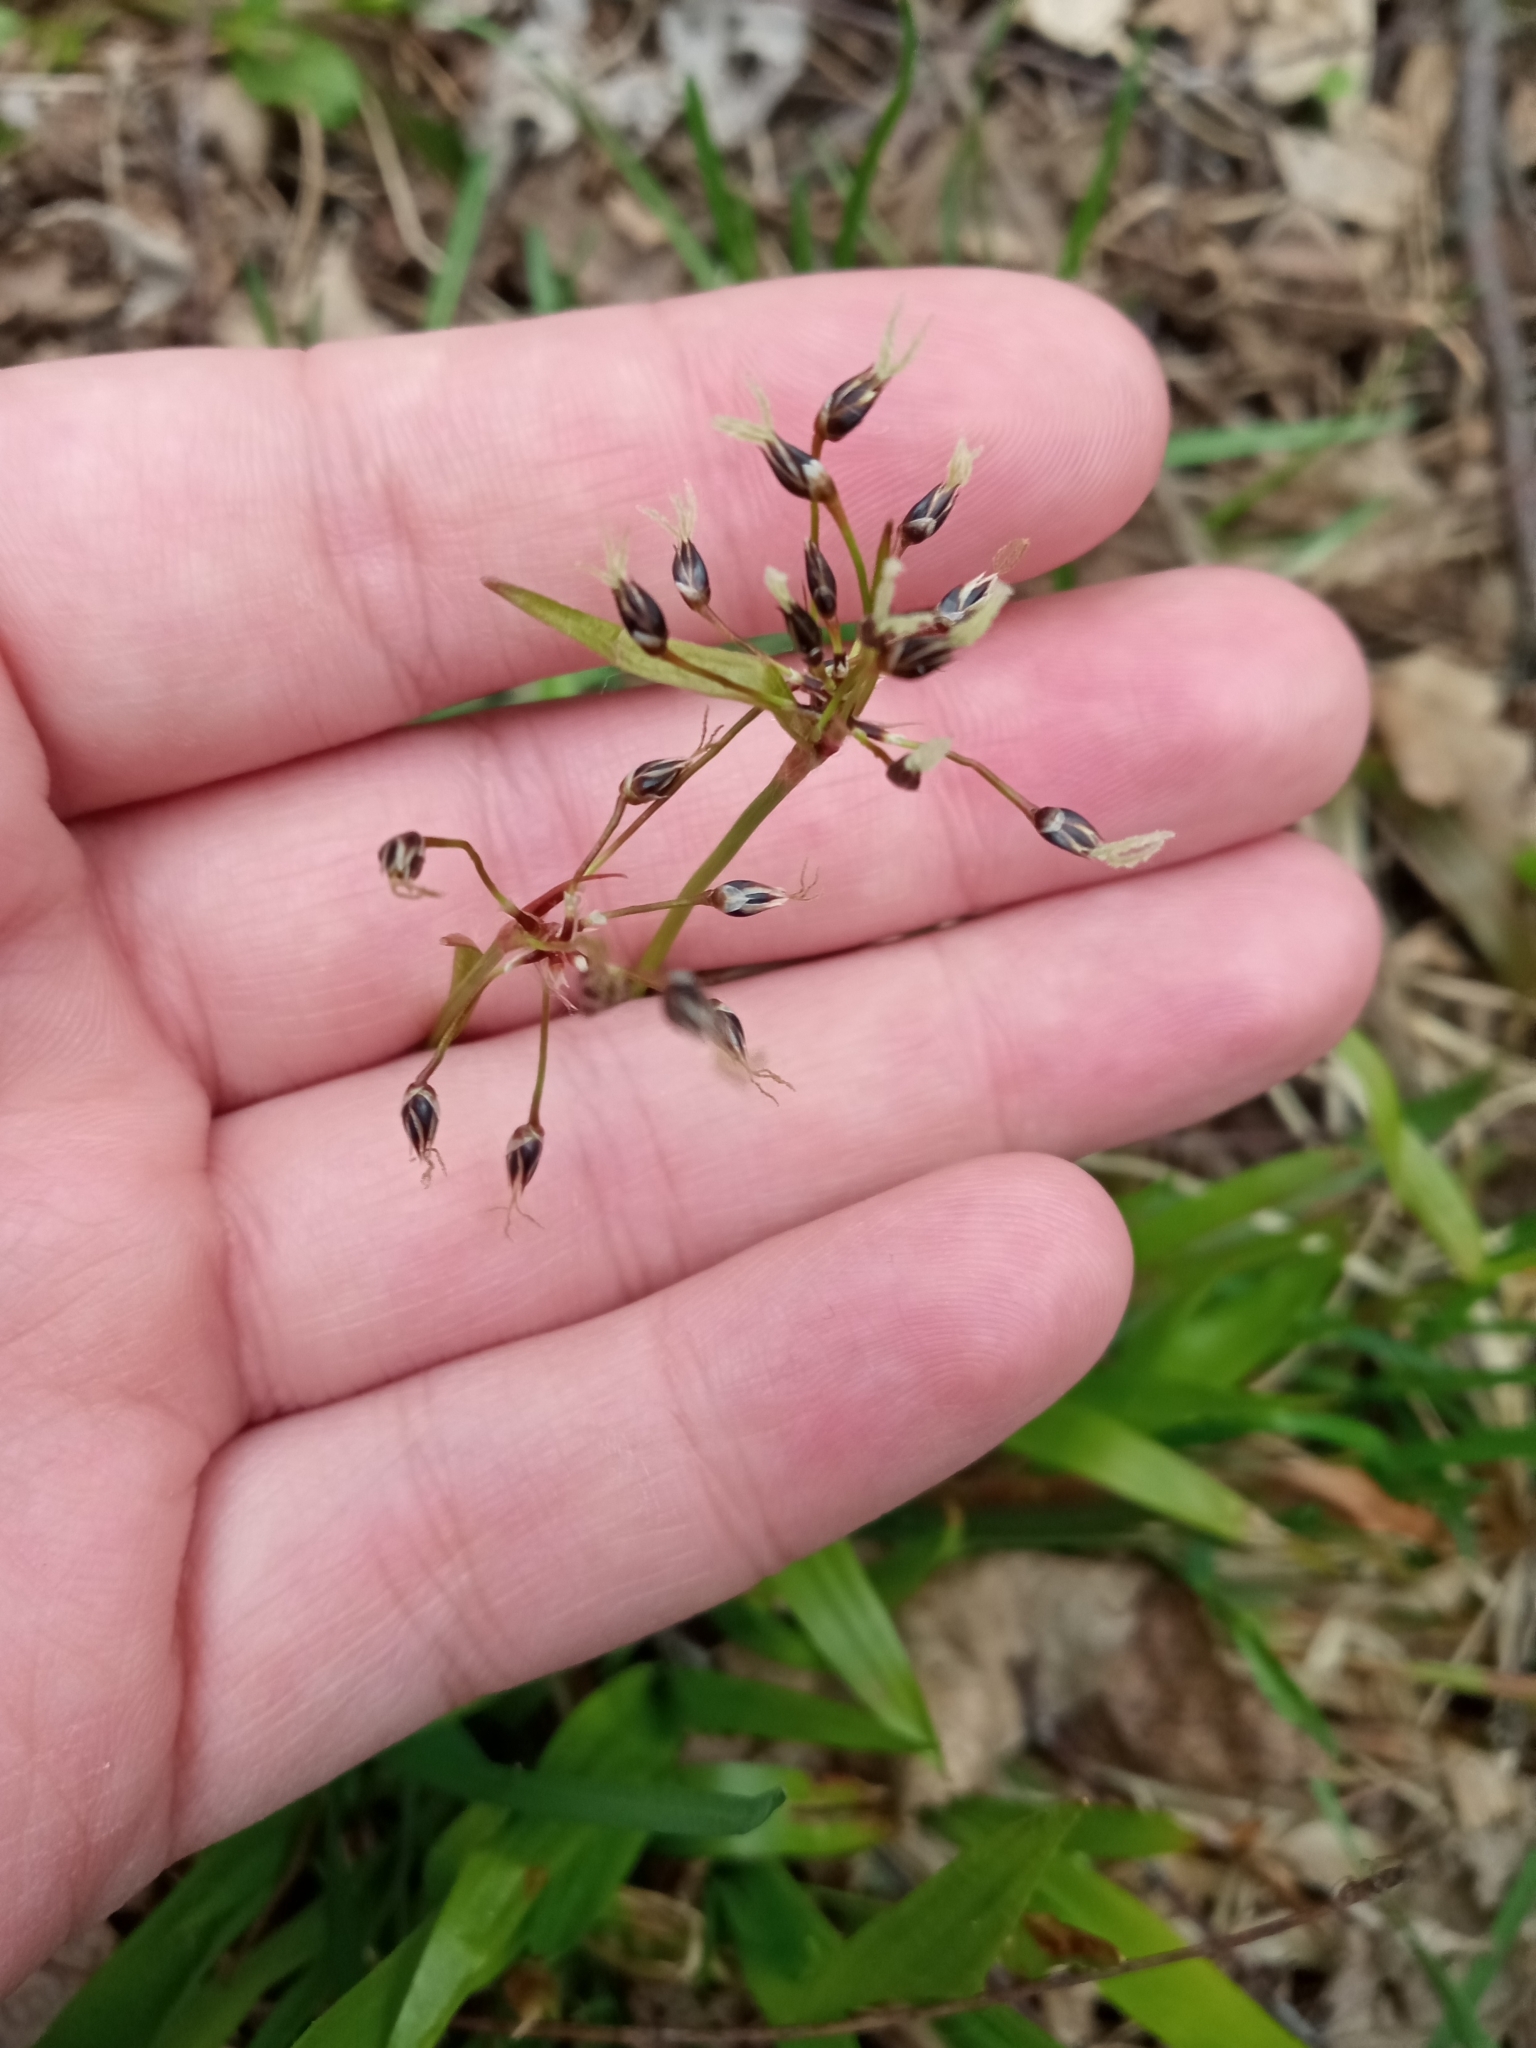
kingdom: Plantae
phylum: Tracheophyta
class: Liliopsida
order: Poales
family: Juncaceae
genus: Luzula
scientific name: Luzula pilosa
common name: Hairy wood-rush
